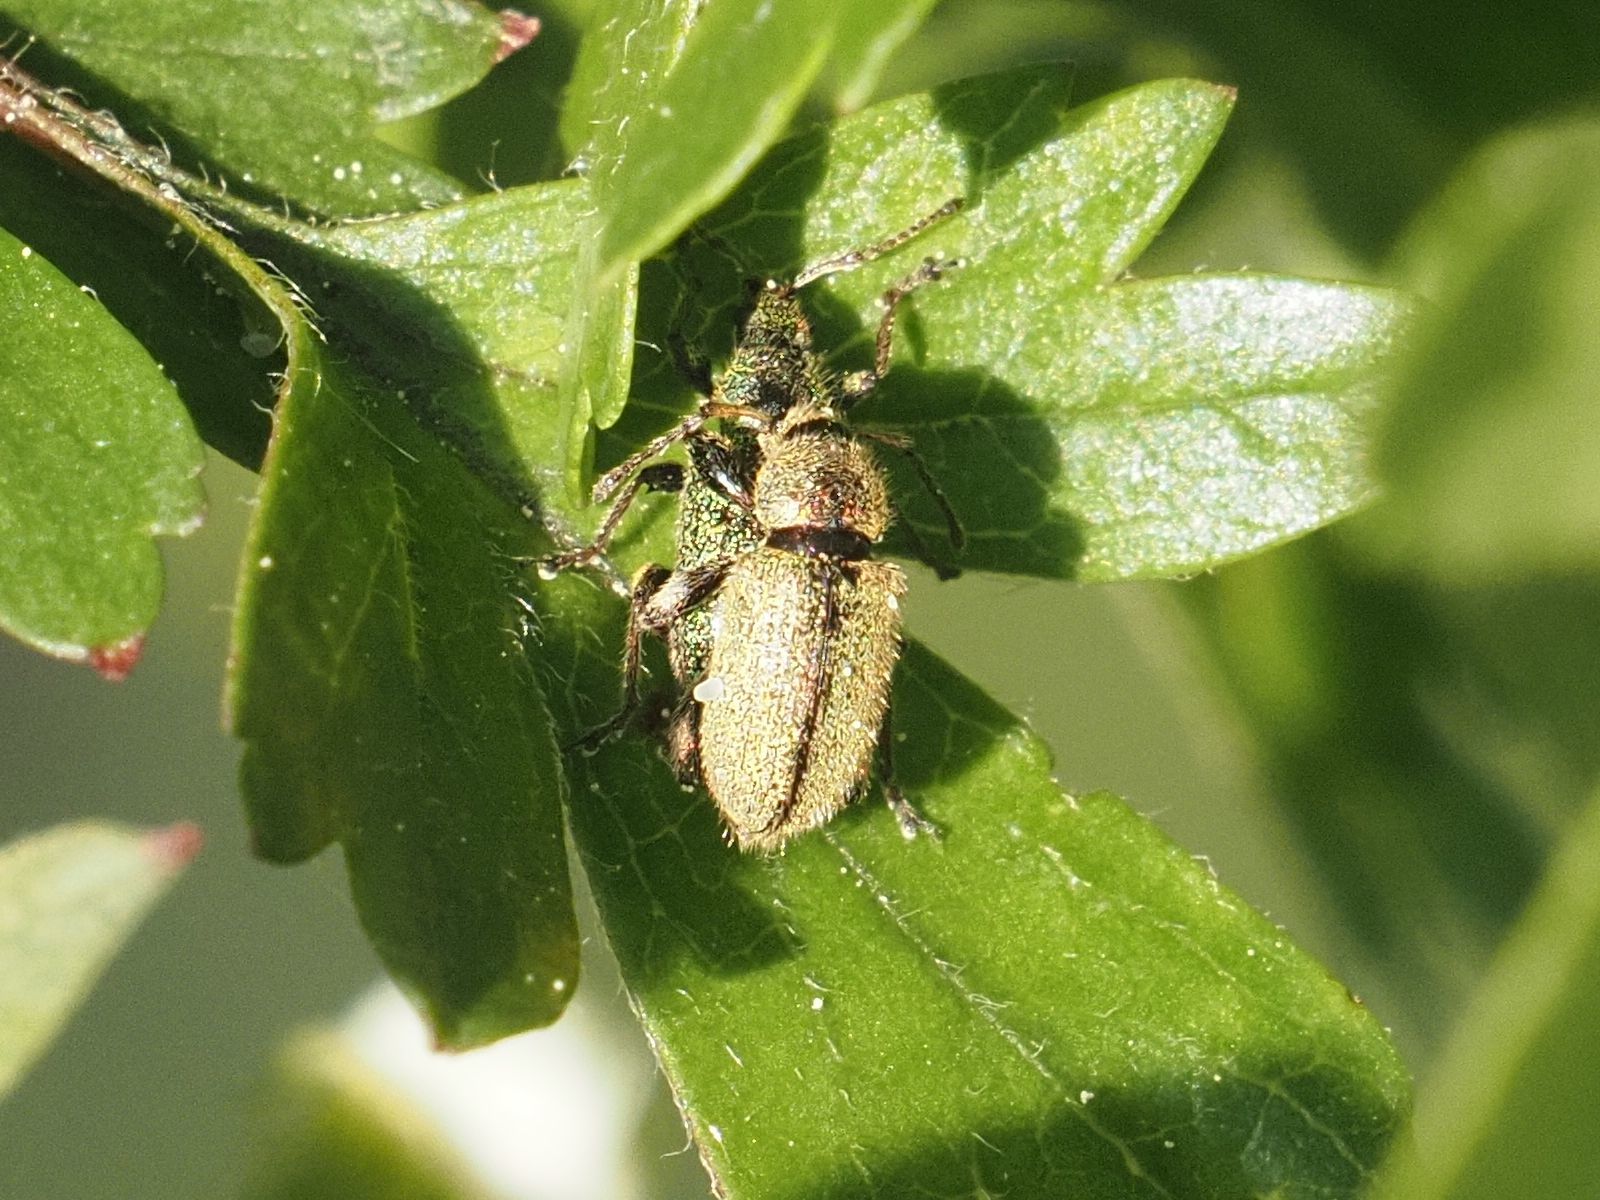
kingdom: Animalia
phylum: Arthropoda
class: Insecta
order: Coleoptera
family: Curculionidae
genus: Phyllobius
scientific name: Phyllobius betulinus
